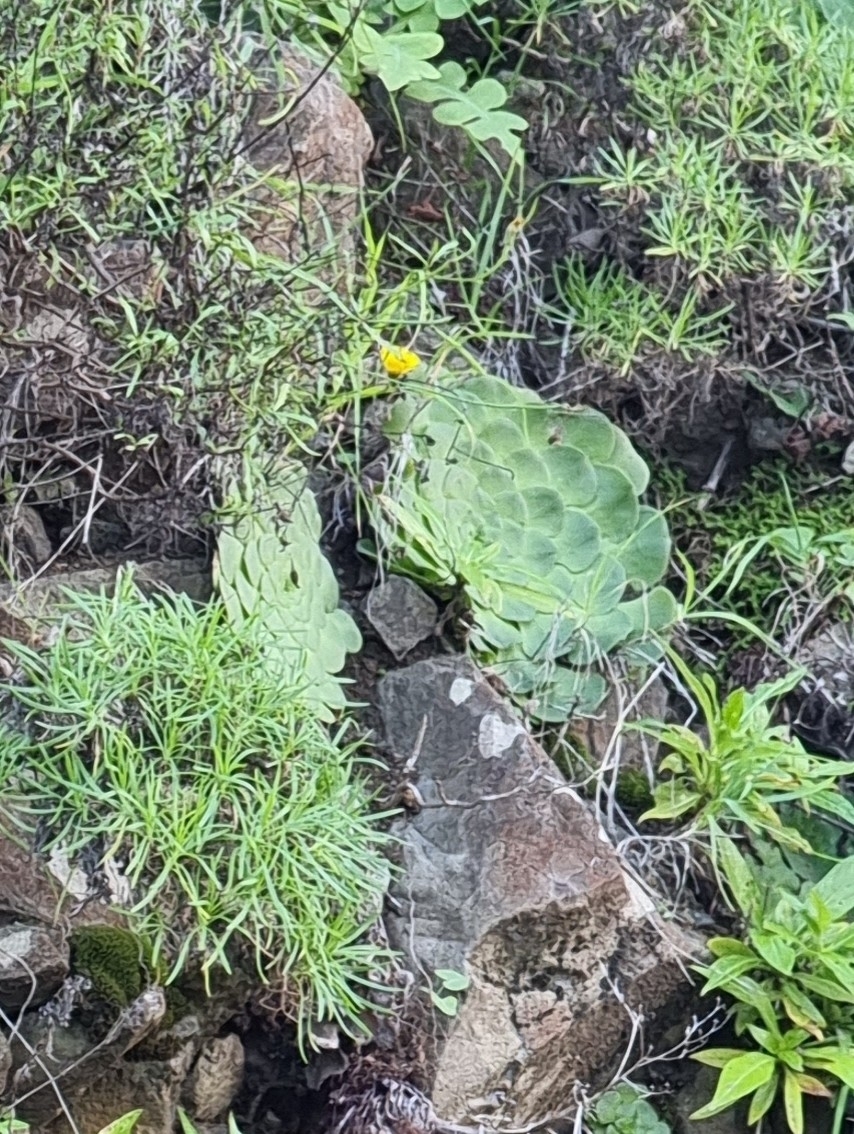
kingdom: Plantae
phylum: Tracheophyta
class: Magnoliopsida
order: Saxifragales
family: Crassulaceae
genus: Aeonium
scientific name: Aeonium glandulosum
